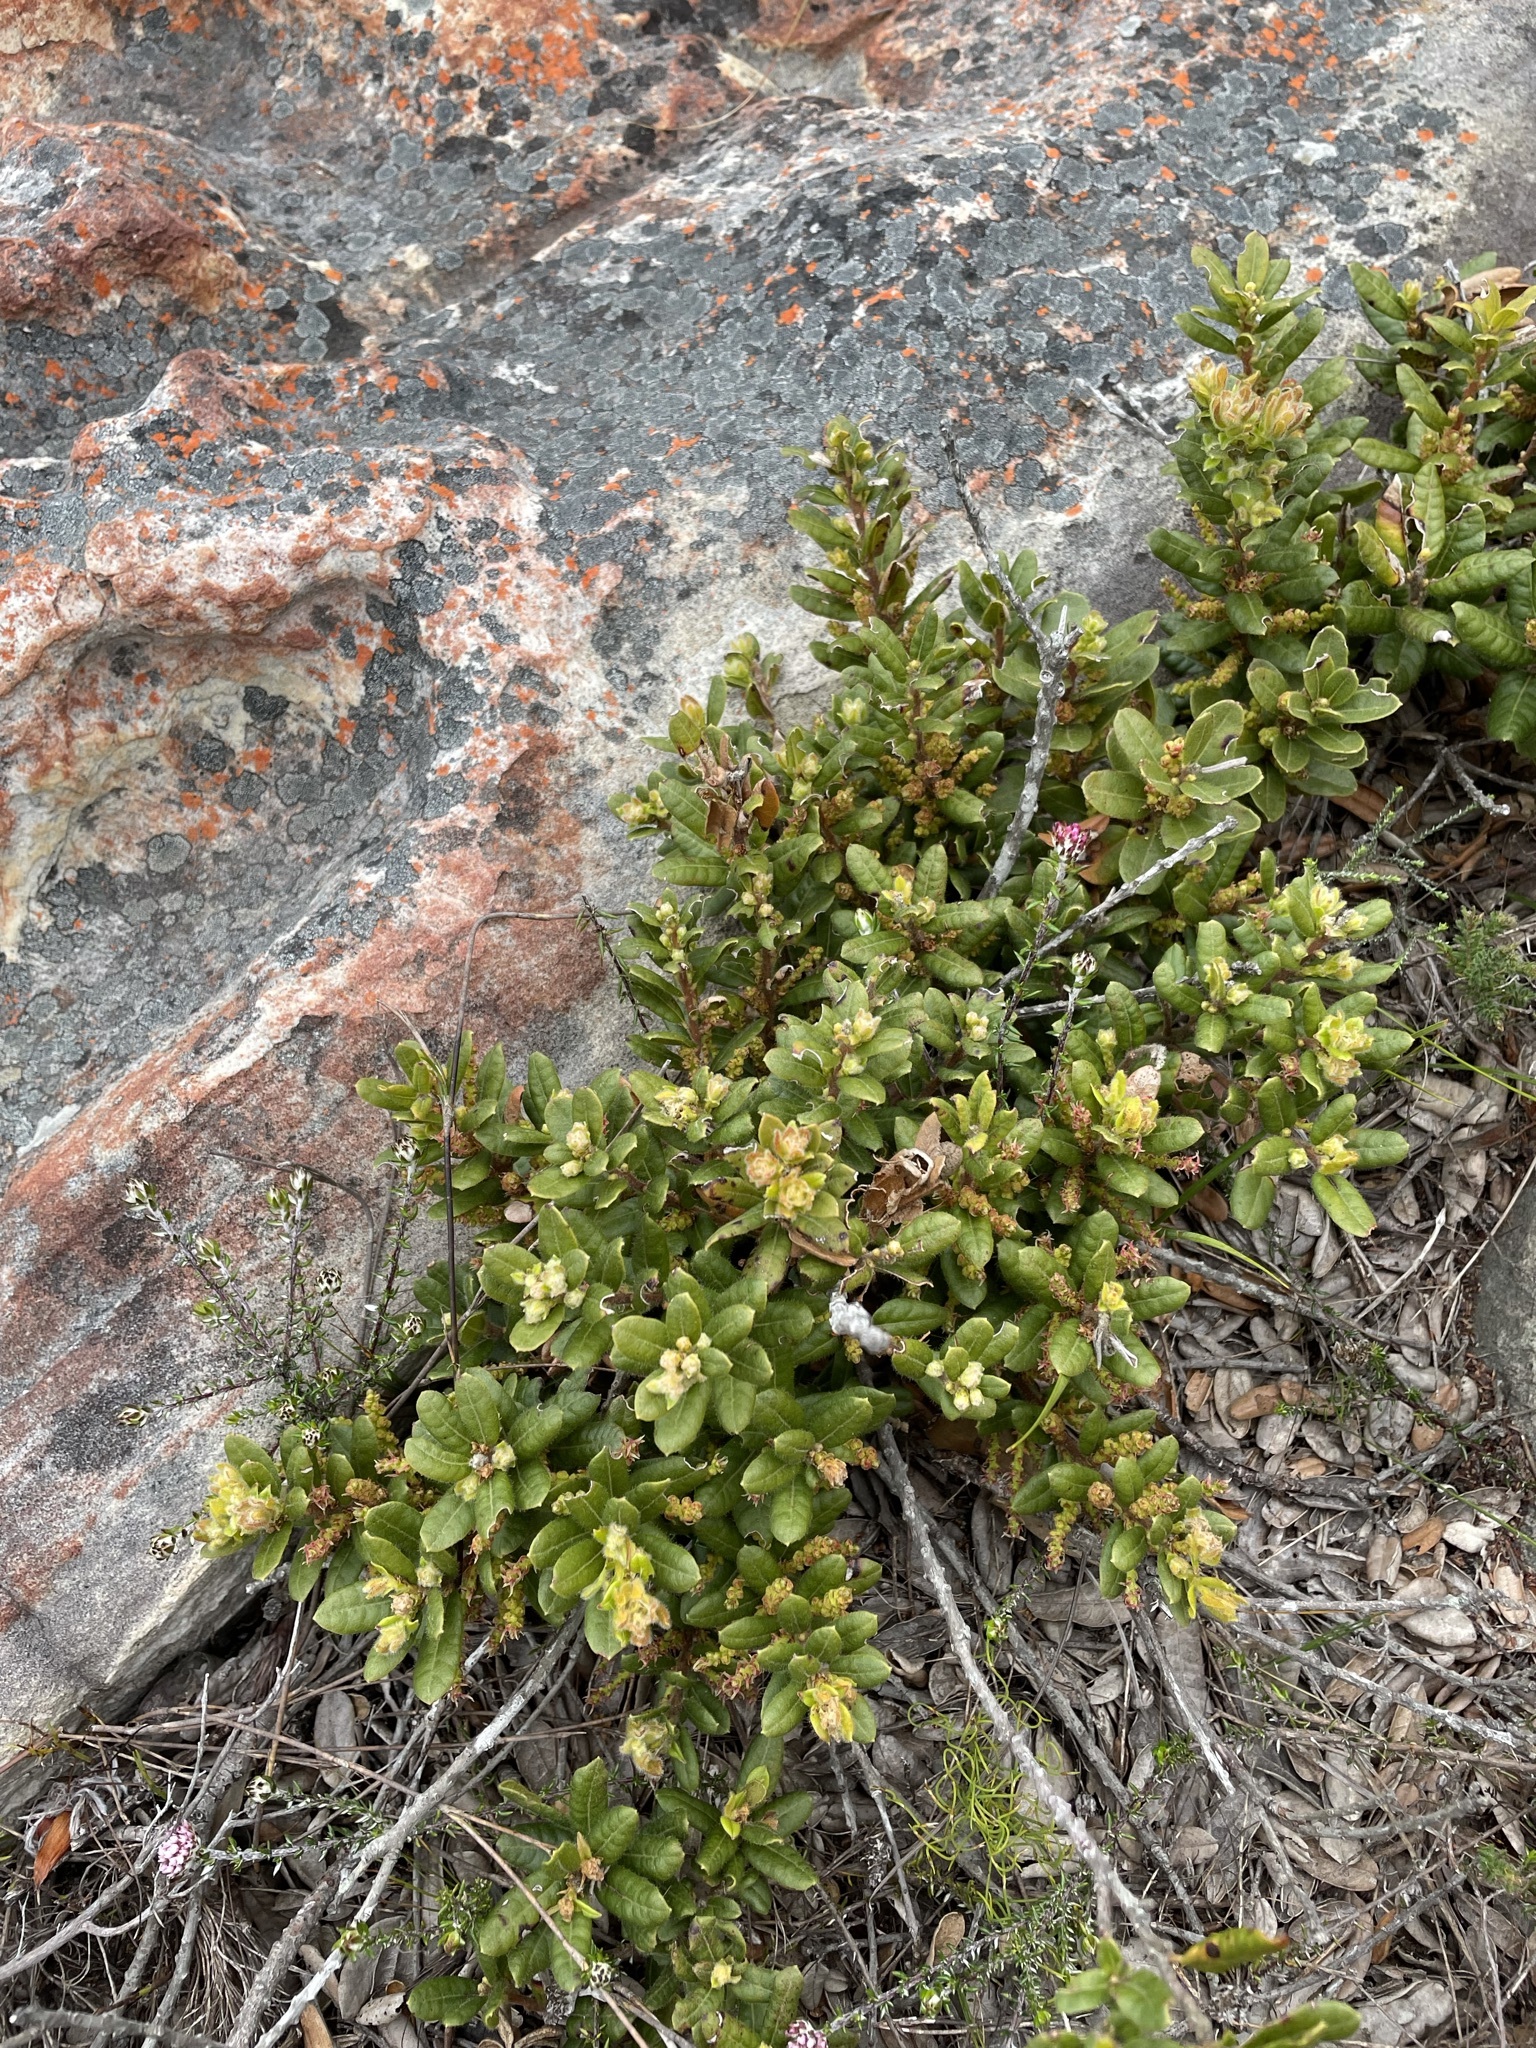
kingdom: Plantae
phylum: Tracheophyta
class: Magnoliopsida
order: Fagales
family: Myricaceae
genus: Morella
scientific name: Morella kraussiana
